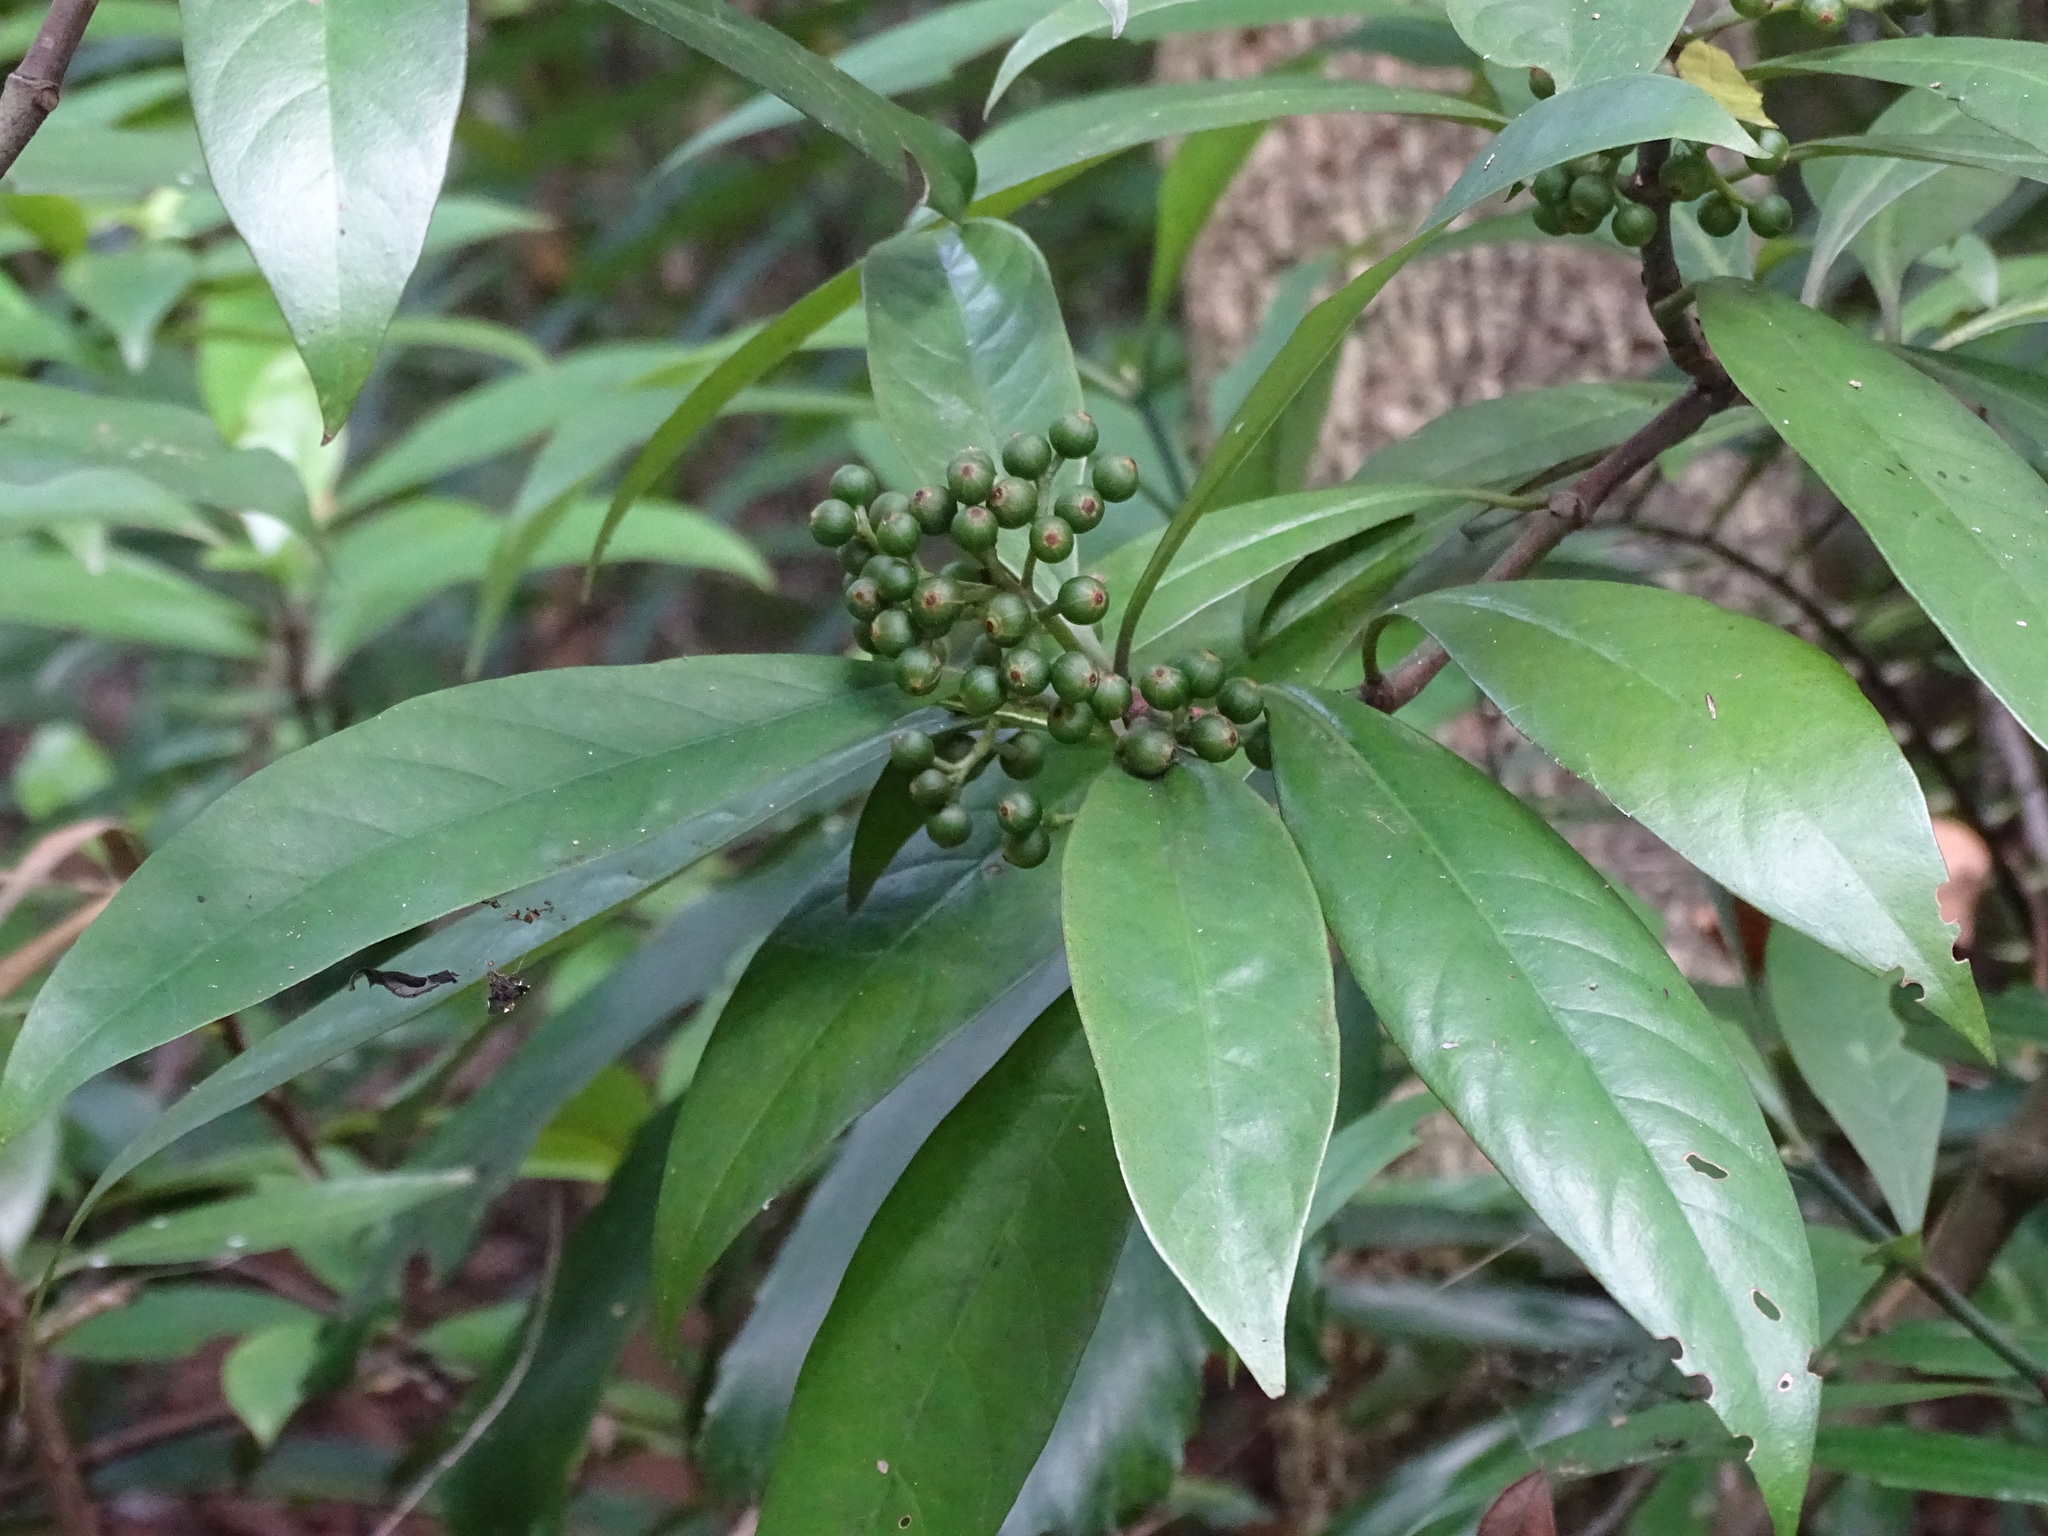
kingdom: Plantae
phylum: Tracheophyta
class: Magnoliopsida
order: Gentianales
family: Rubiaceae
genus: Psychotria
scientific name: Psychotria asiatica
